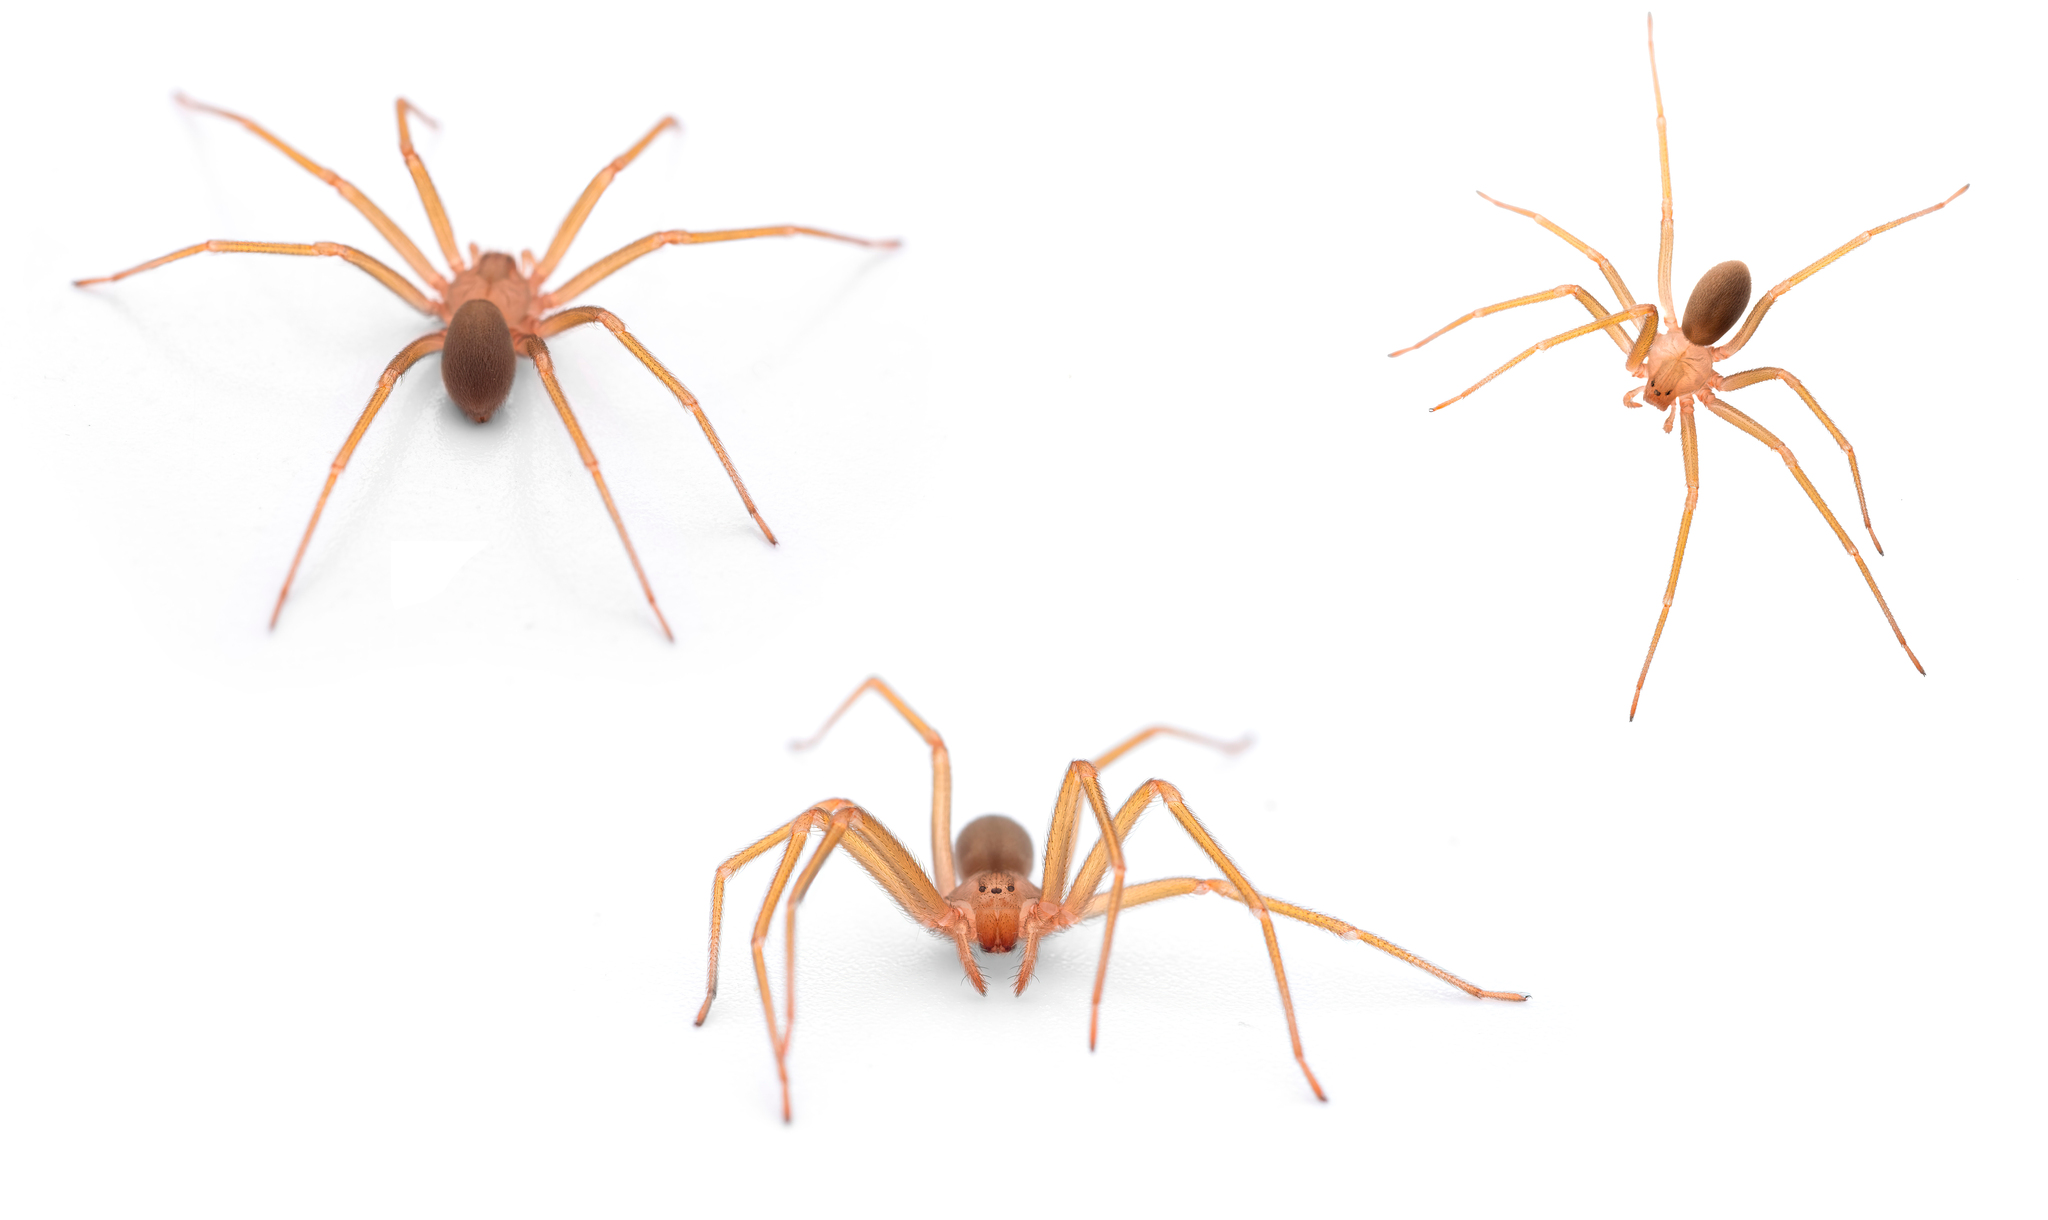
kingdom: Animalia
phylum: Arthropoda
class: Arachnida
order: Araneae
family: Sicariidae
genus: Loxosceles
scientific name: Loxosceles rufescens
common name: Mediterranean recluse spider
